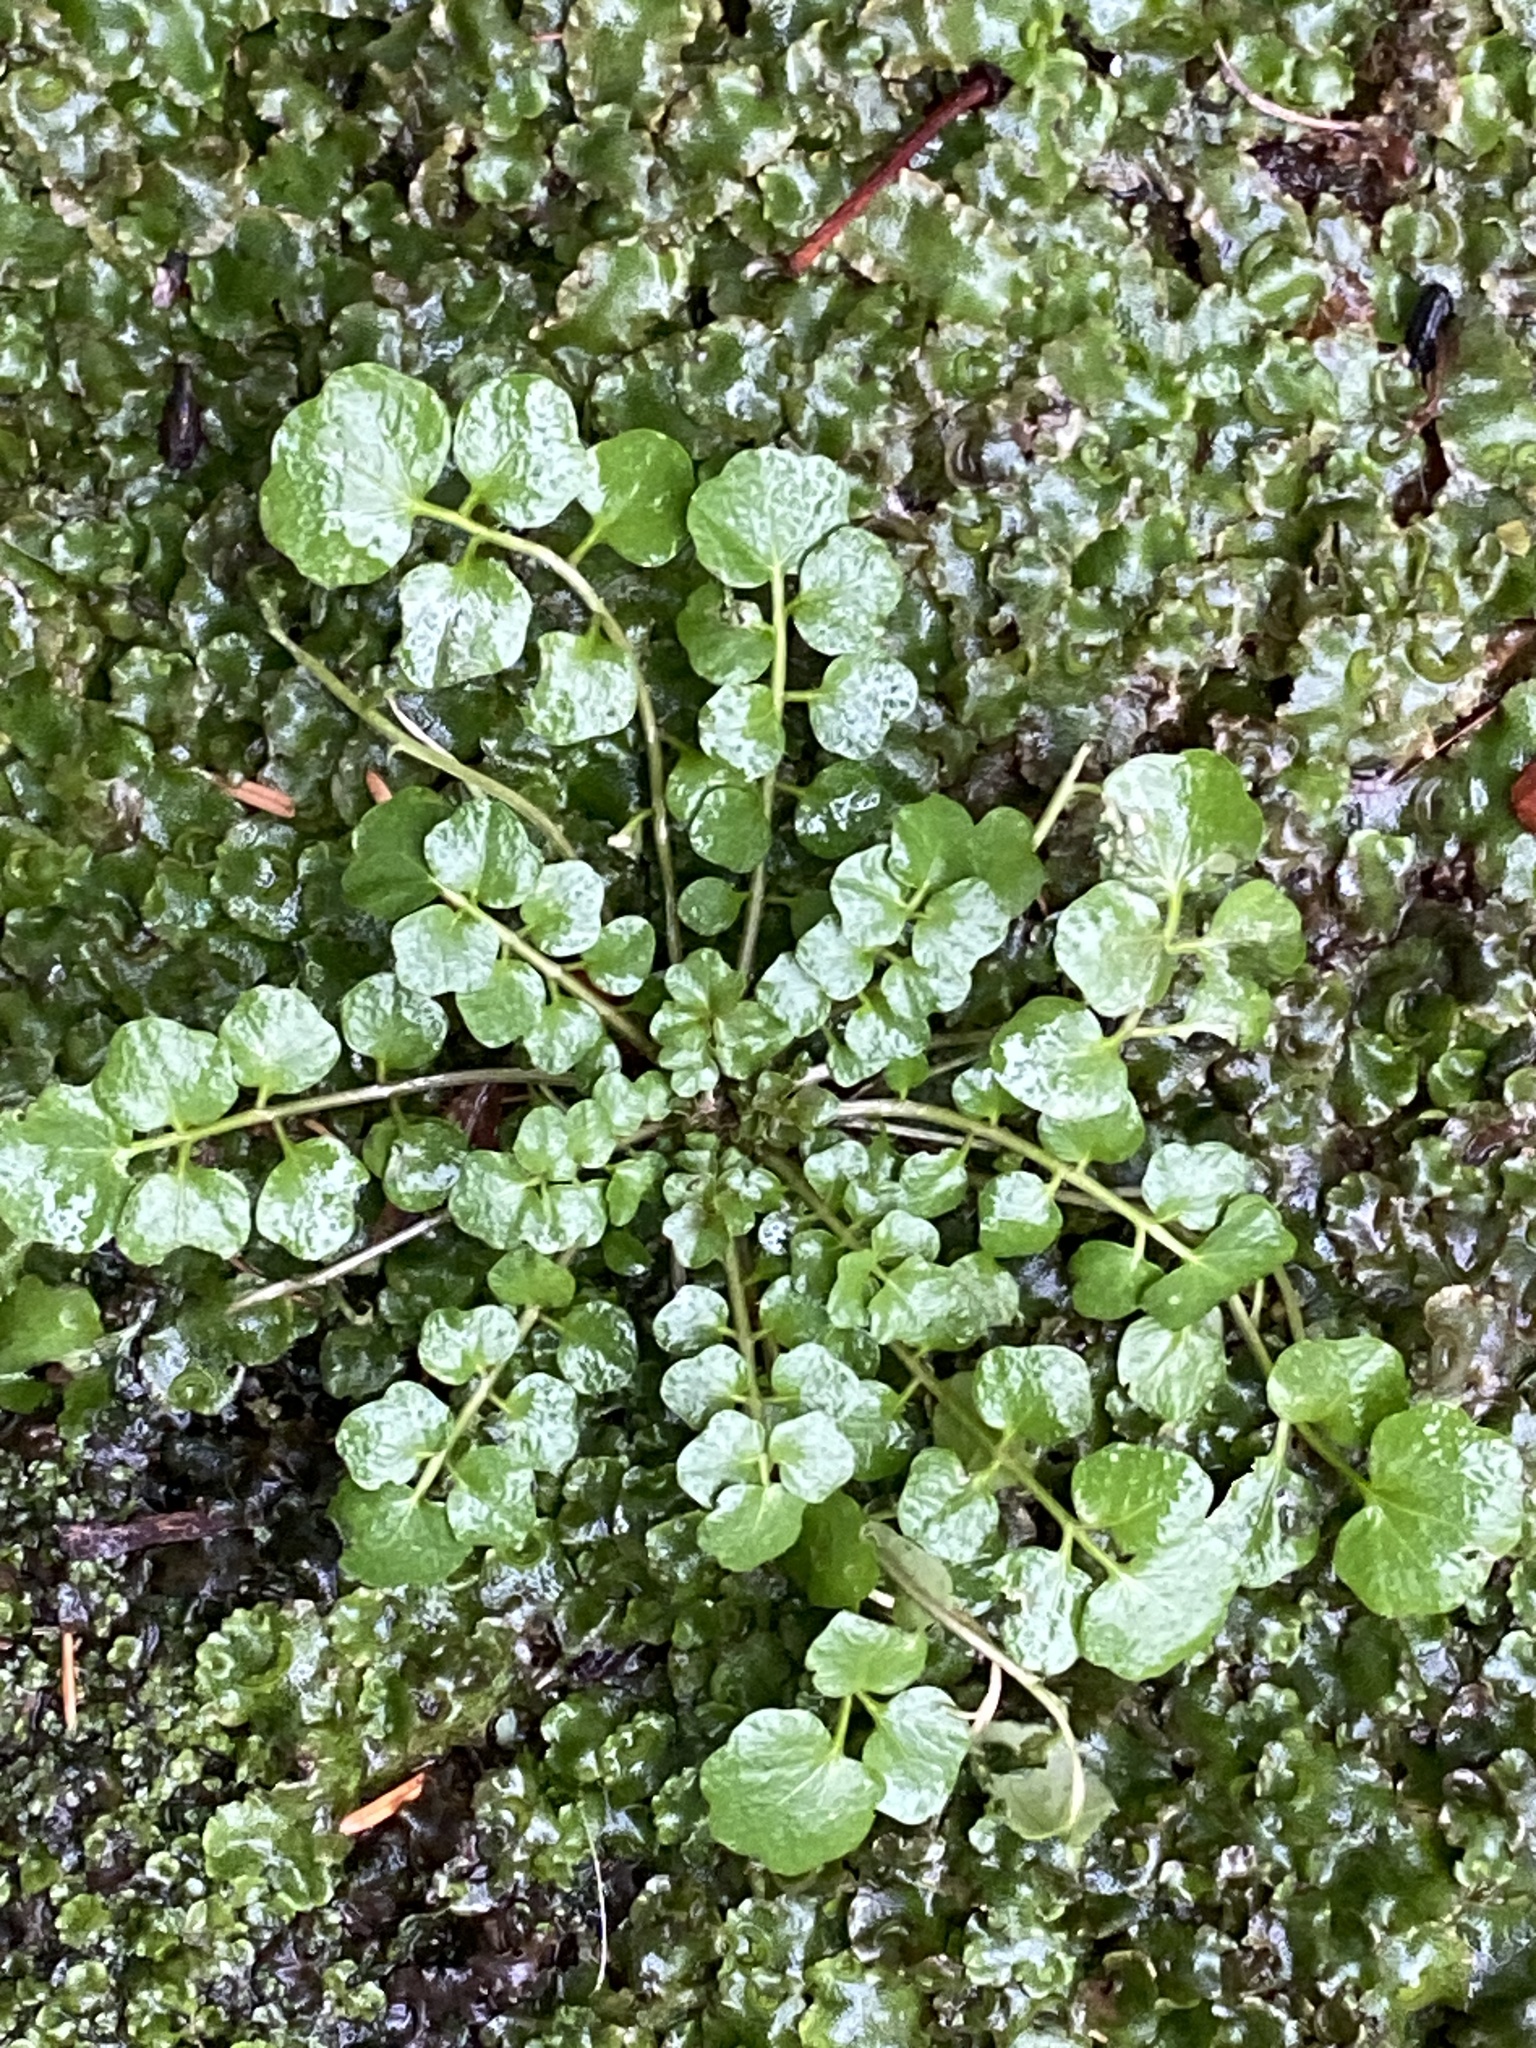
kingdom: Plantae
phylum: Tracheophyta
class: Magnoliopsida
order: Brassicales
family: Brassicaceae
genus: Cardamine
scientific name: Cardamine hirsuta
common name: Hairy bittercress
